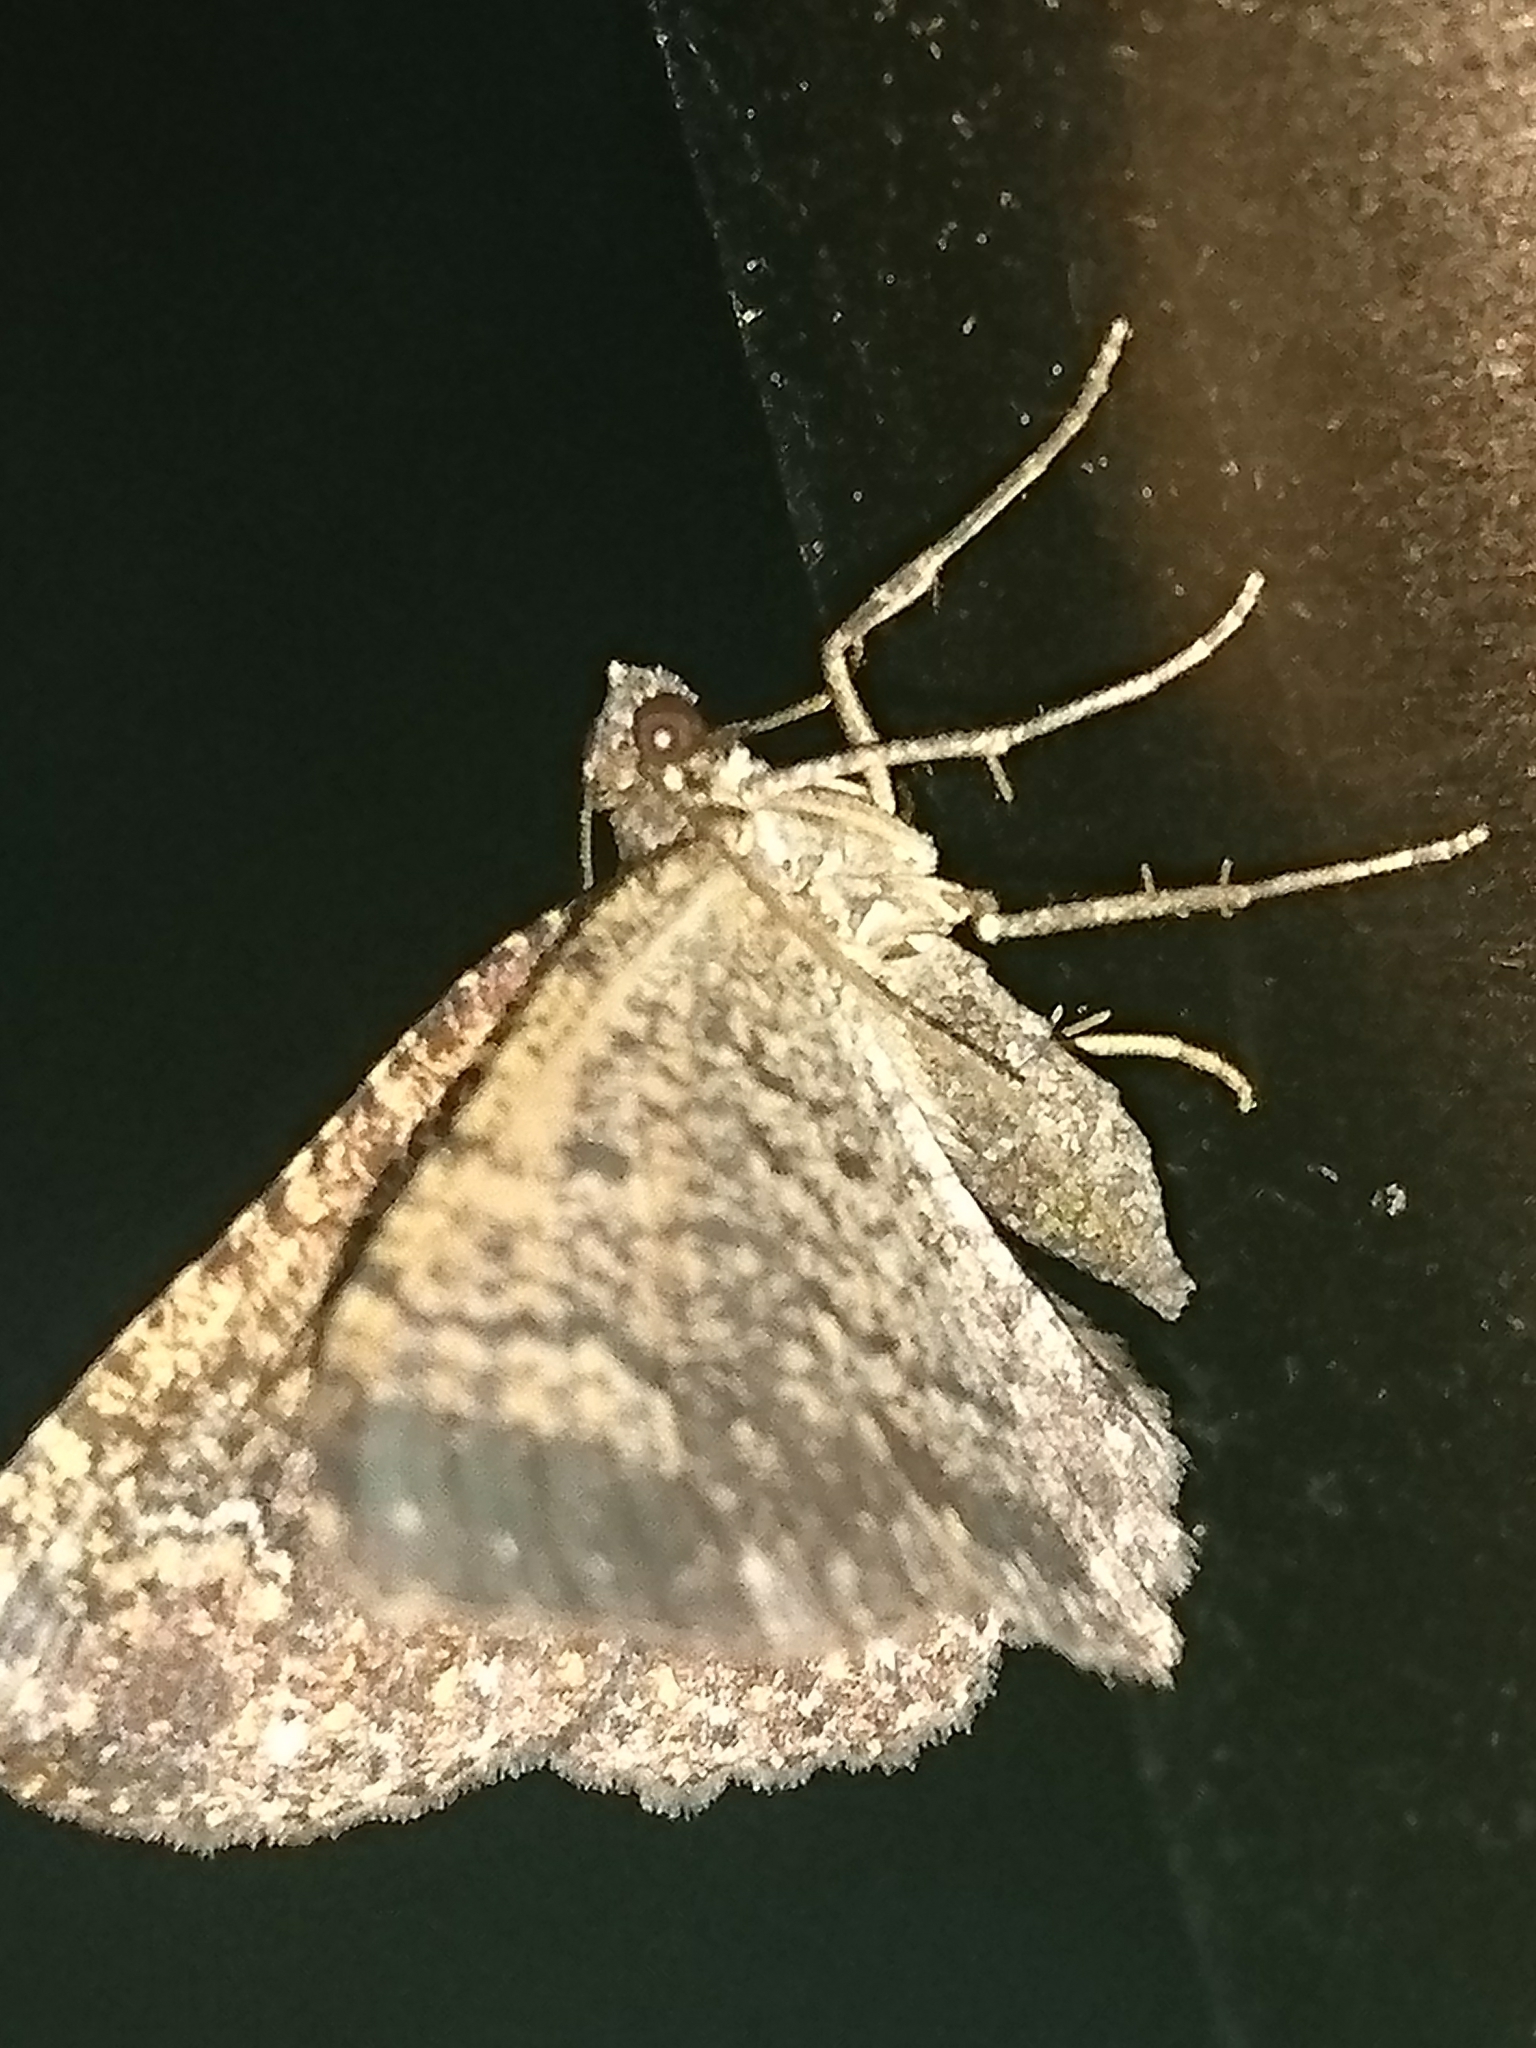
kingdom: Animalia
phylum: Arthropoda
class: Insecta
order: Lepidoptera
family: Geometridae
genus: Disclisioprocta
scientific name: Disclisioprocta stellata
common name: Somber carpet
